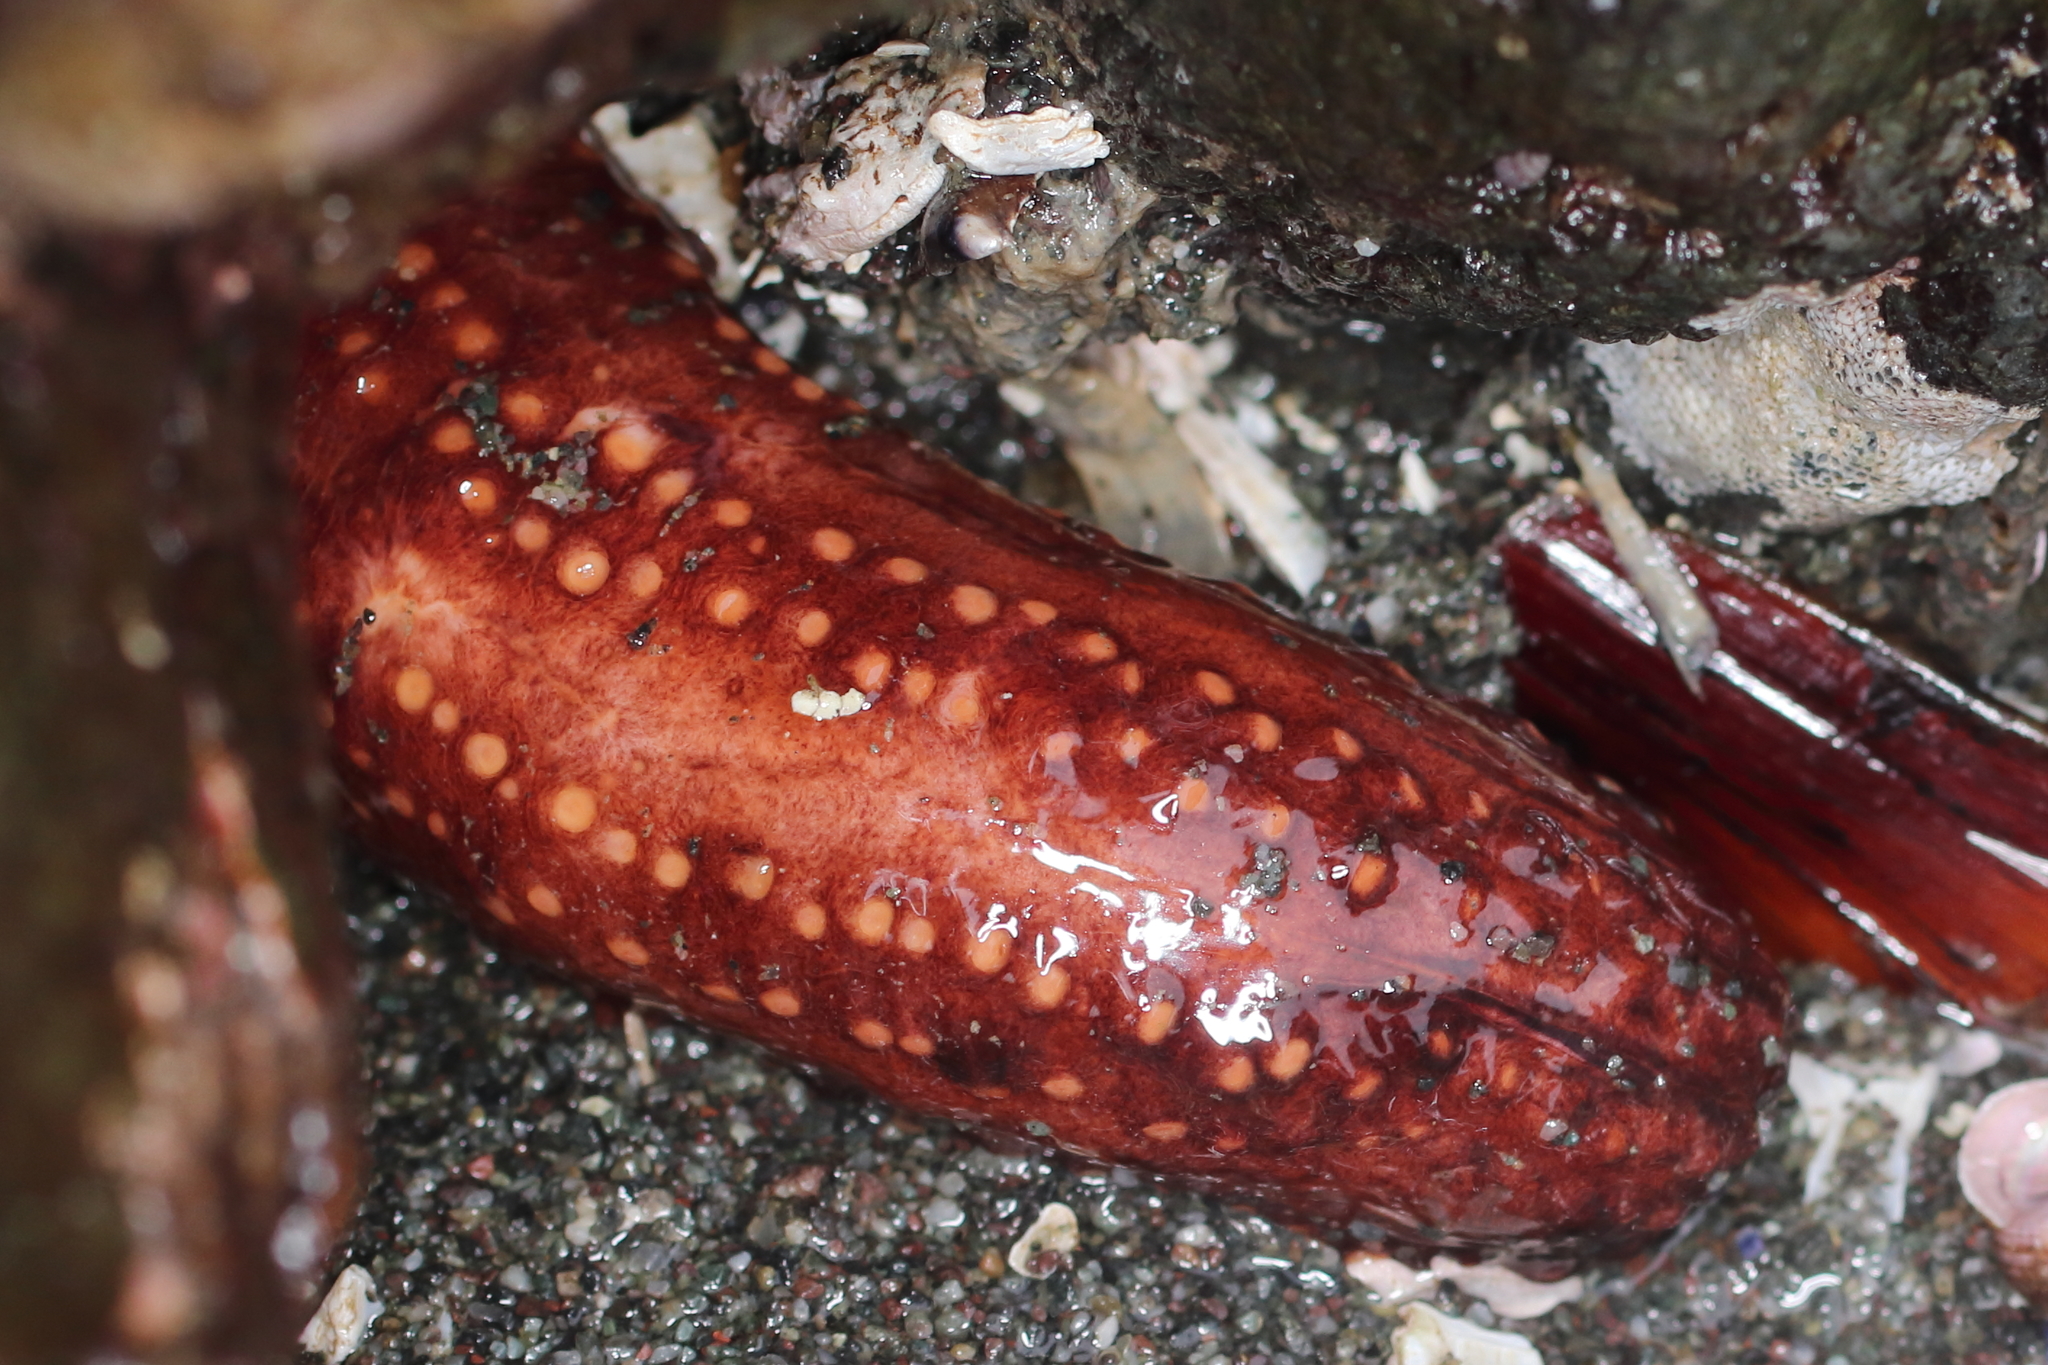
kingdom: Animalia
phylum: Echinodermata
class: Holothuroidea
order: Dendrochirotida
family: Cucumariidae
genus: Cucumaria
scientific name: Cucumaria miniata
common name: Orange sea cucumber
